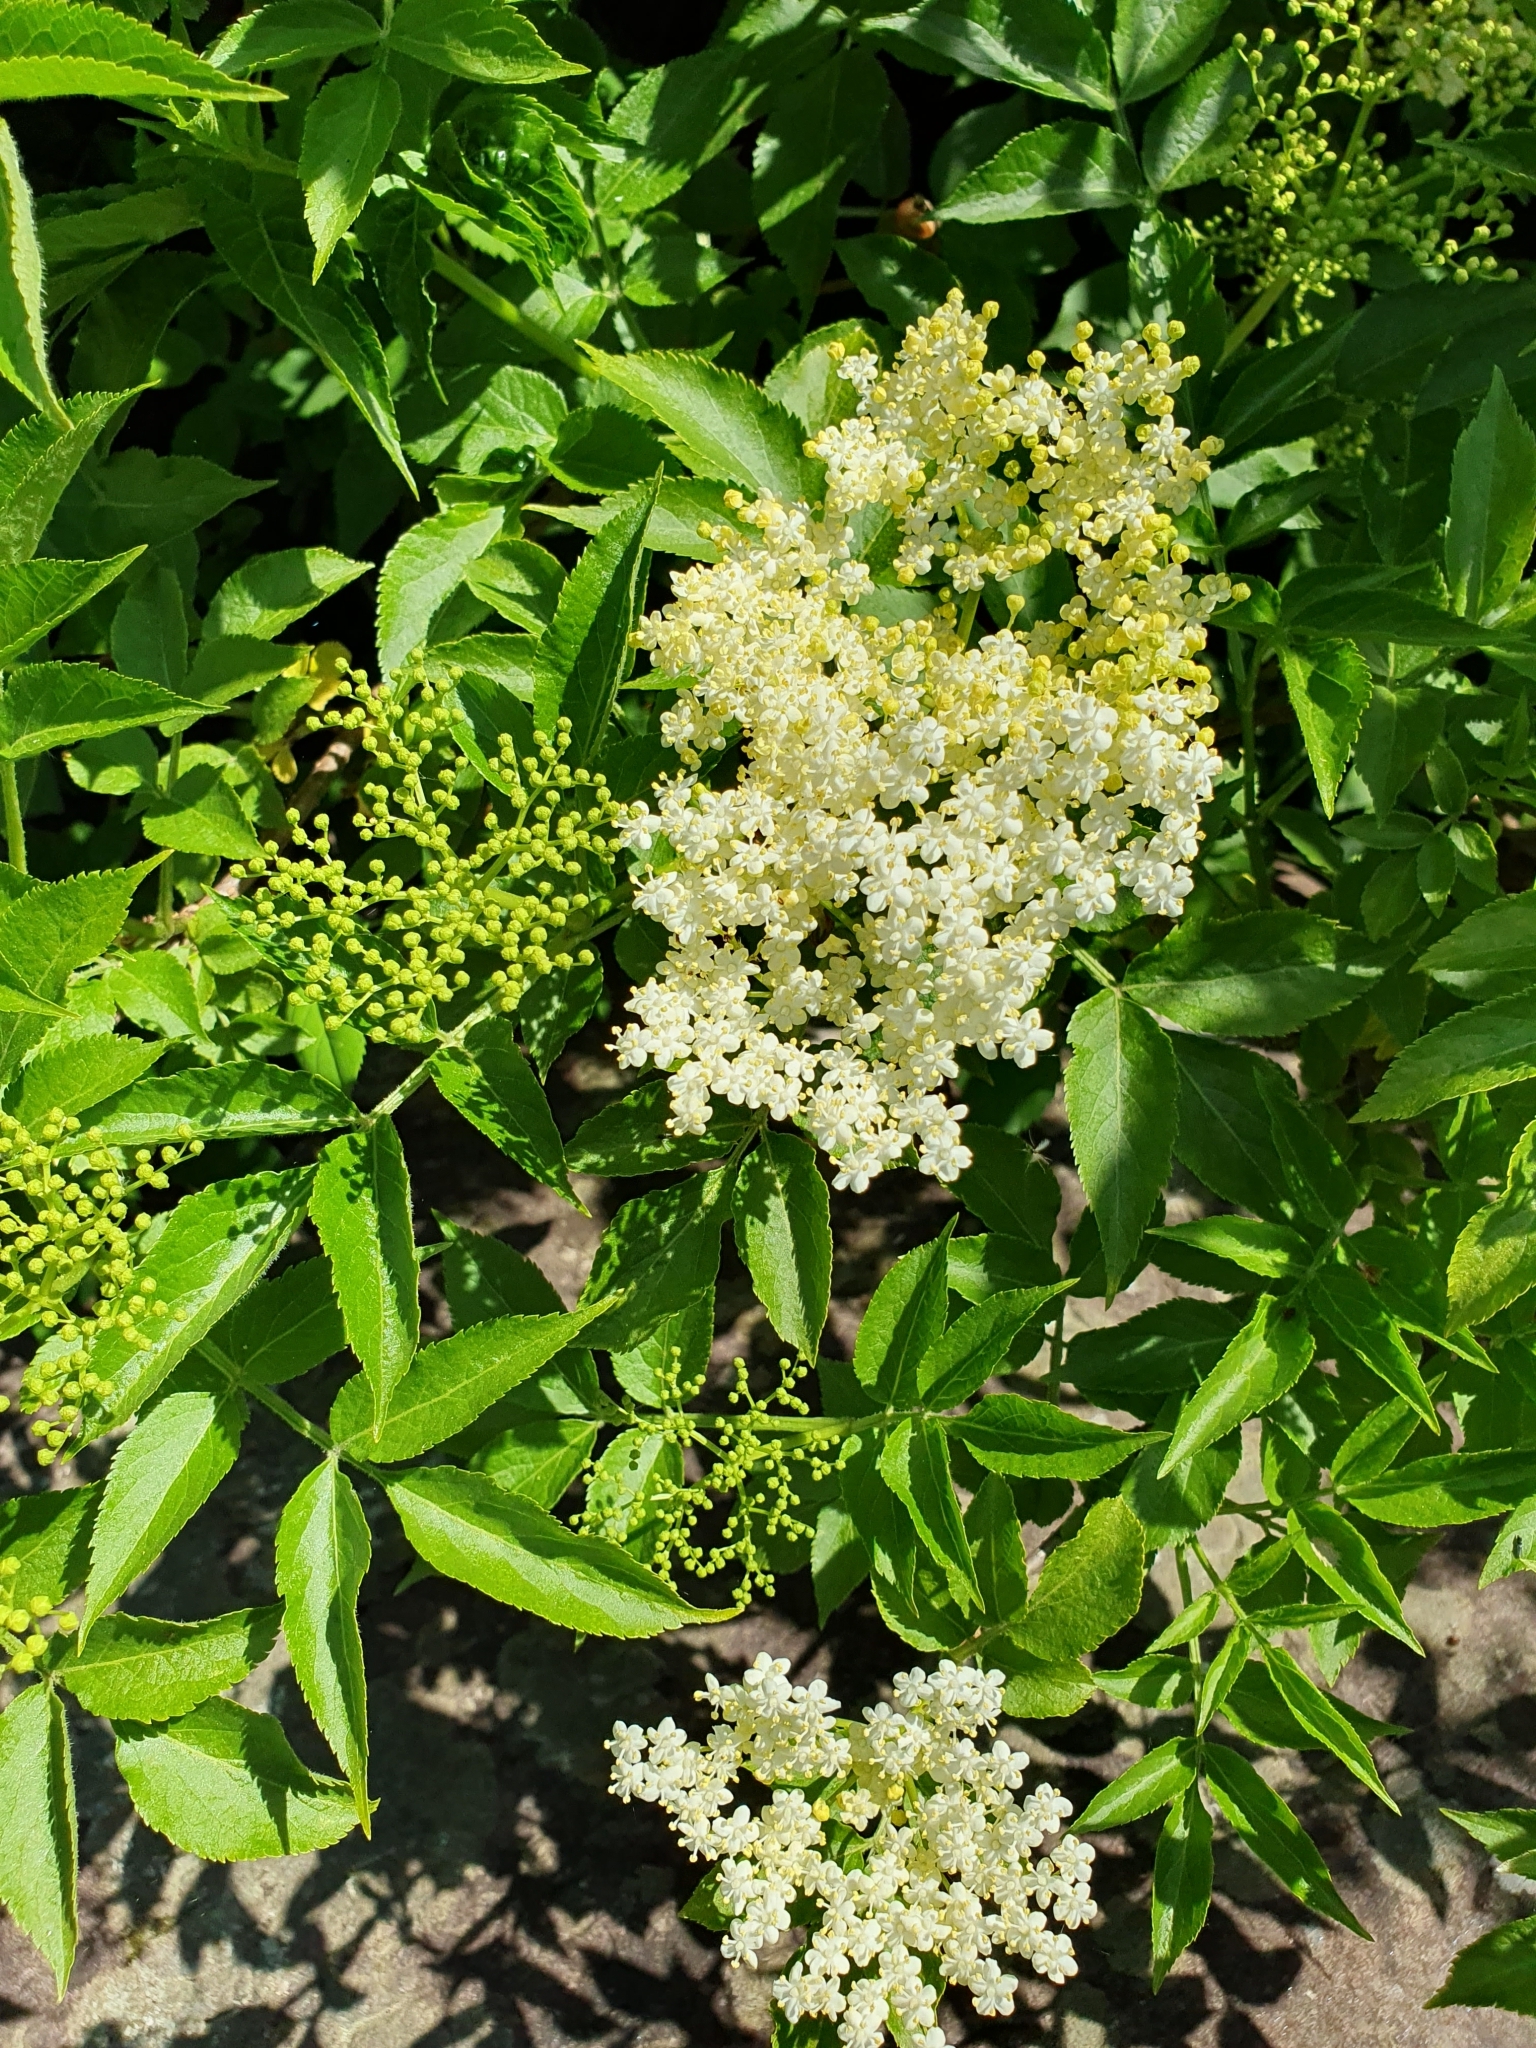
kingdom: Plantae
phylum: Tracheophyta
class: Magnoliopsida
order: Dipsacales
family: Viburnaceae
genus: Sambucus
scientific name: Sambucus nigra
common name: Elder
